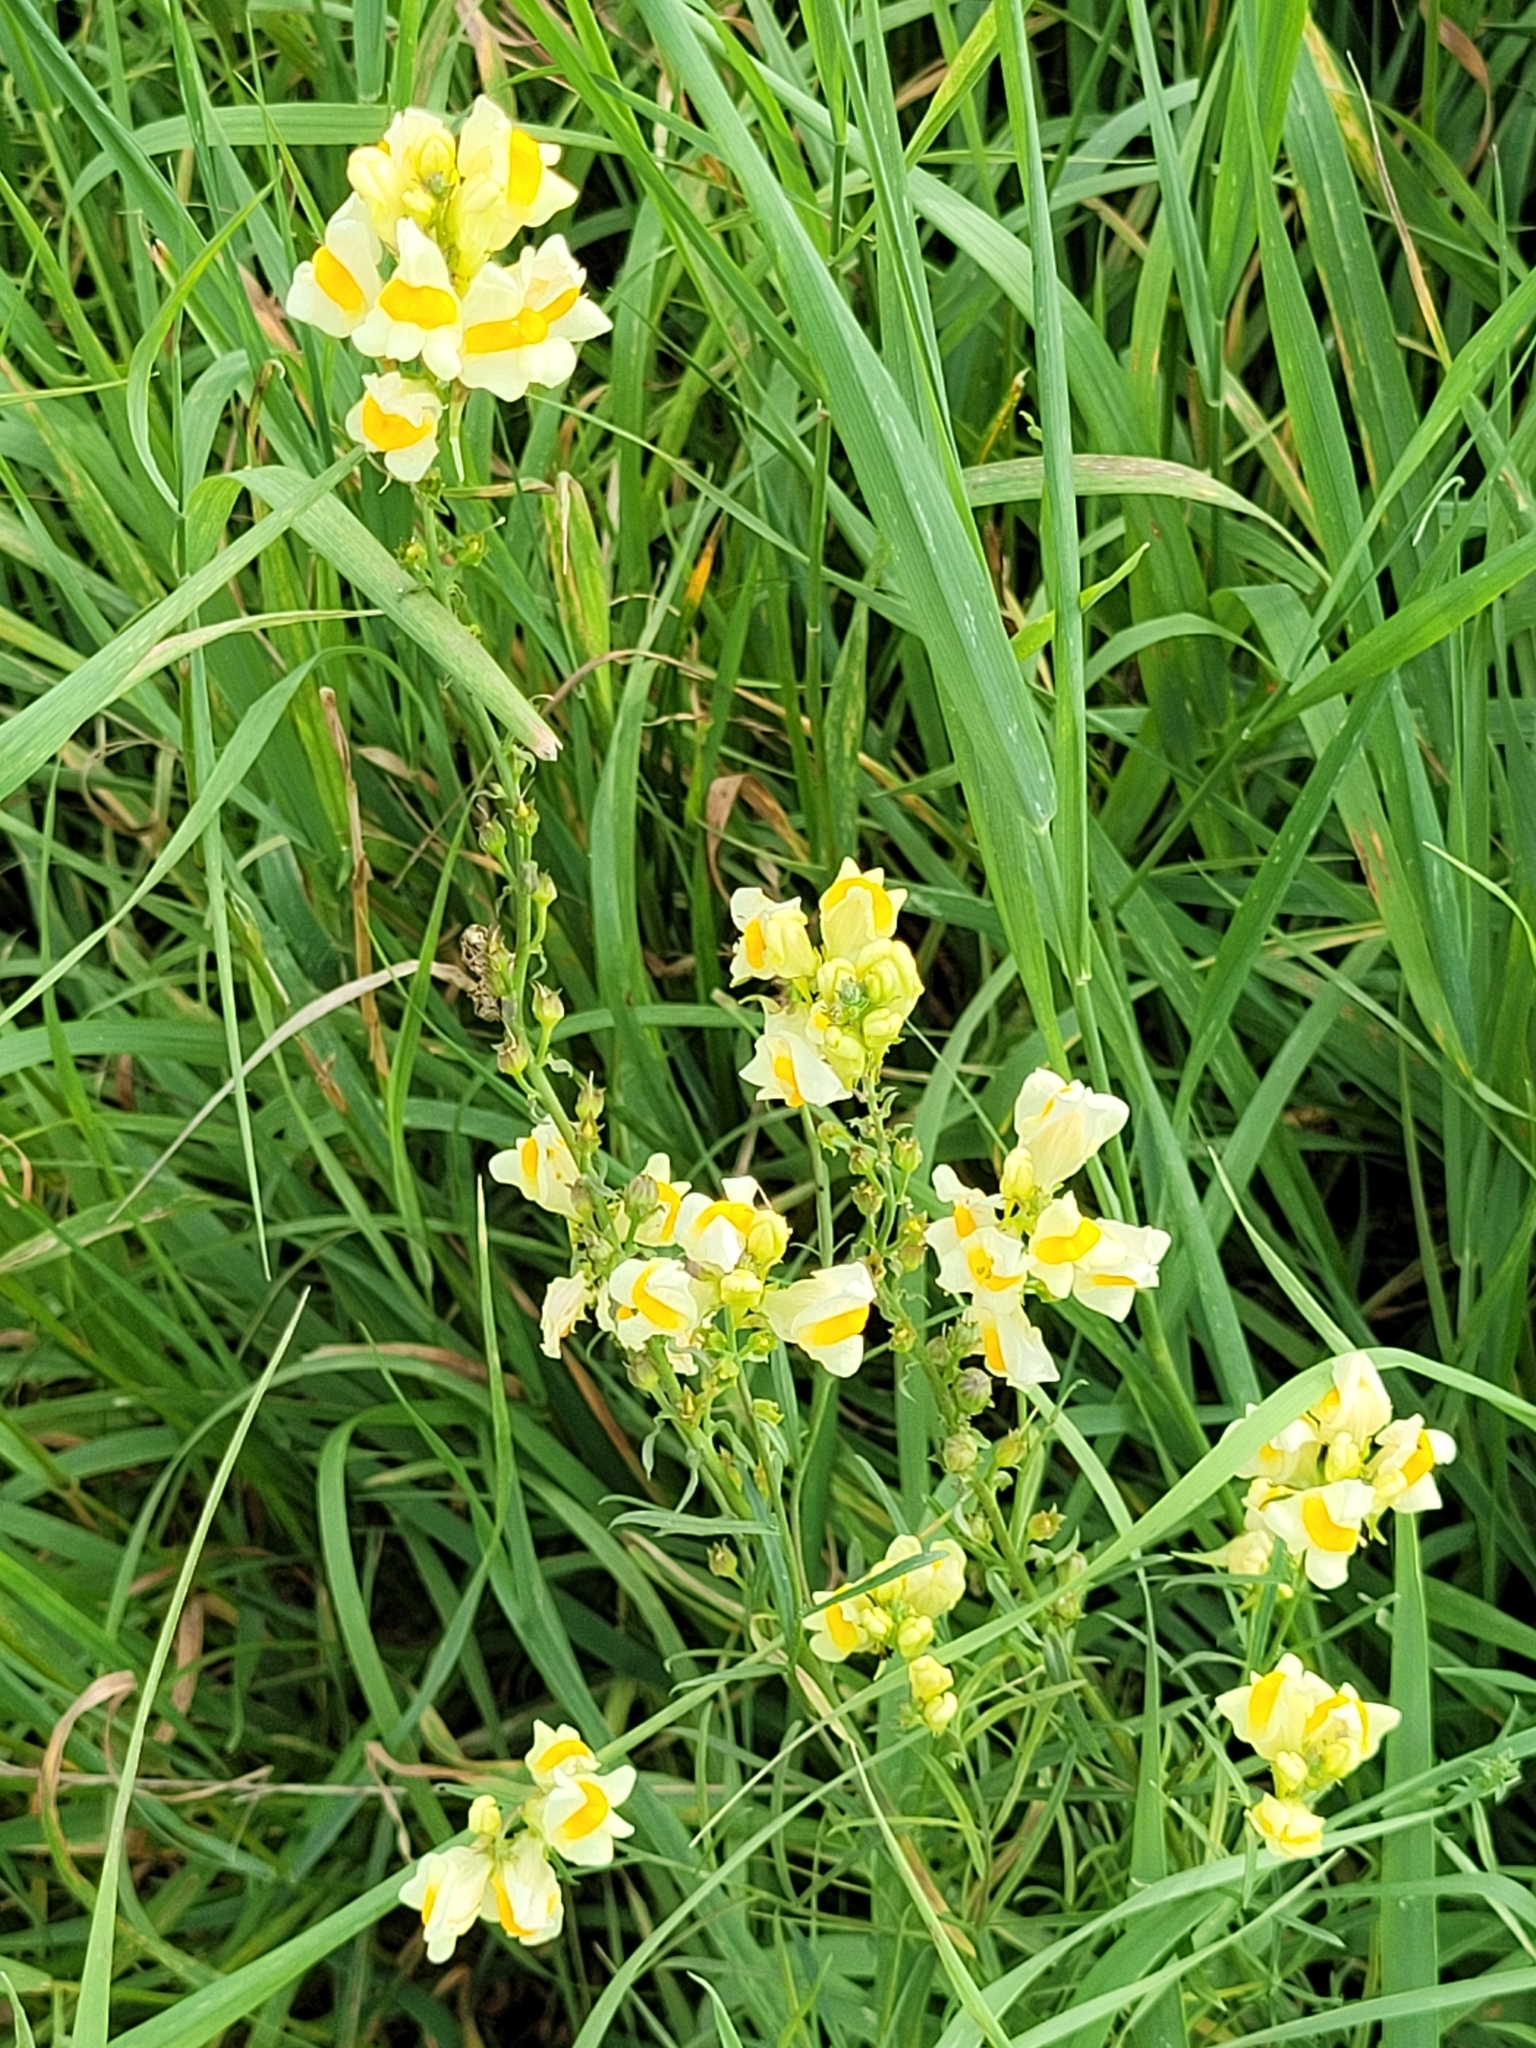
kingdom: Plantae
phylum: Tracheophyta
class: Magnoliopsida
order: Lamiales
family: Plantaginaceae
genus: Linaria
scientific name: Linaria vulgaris
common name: Butter and eggs
